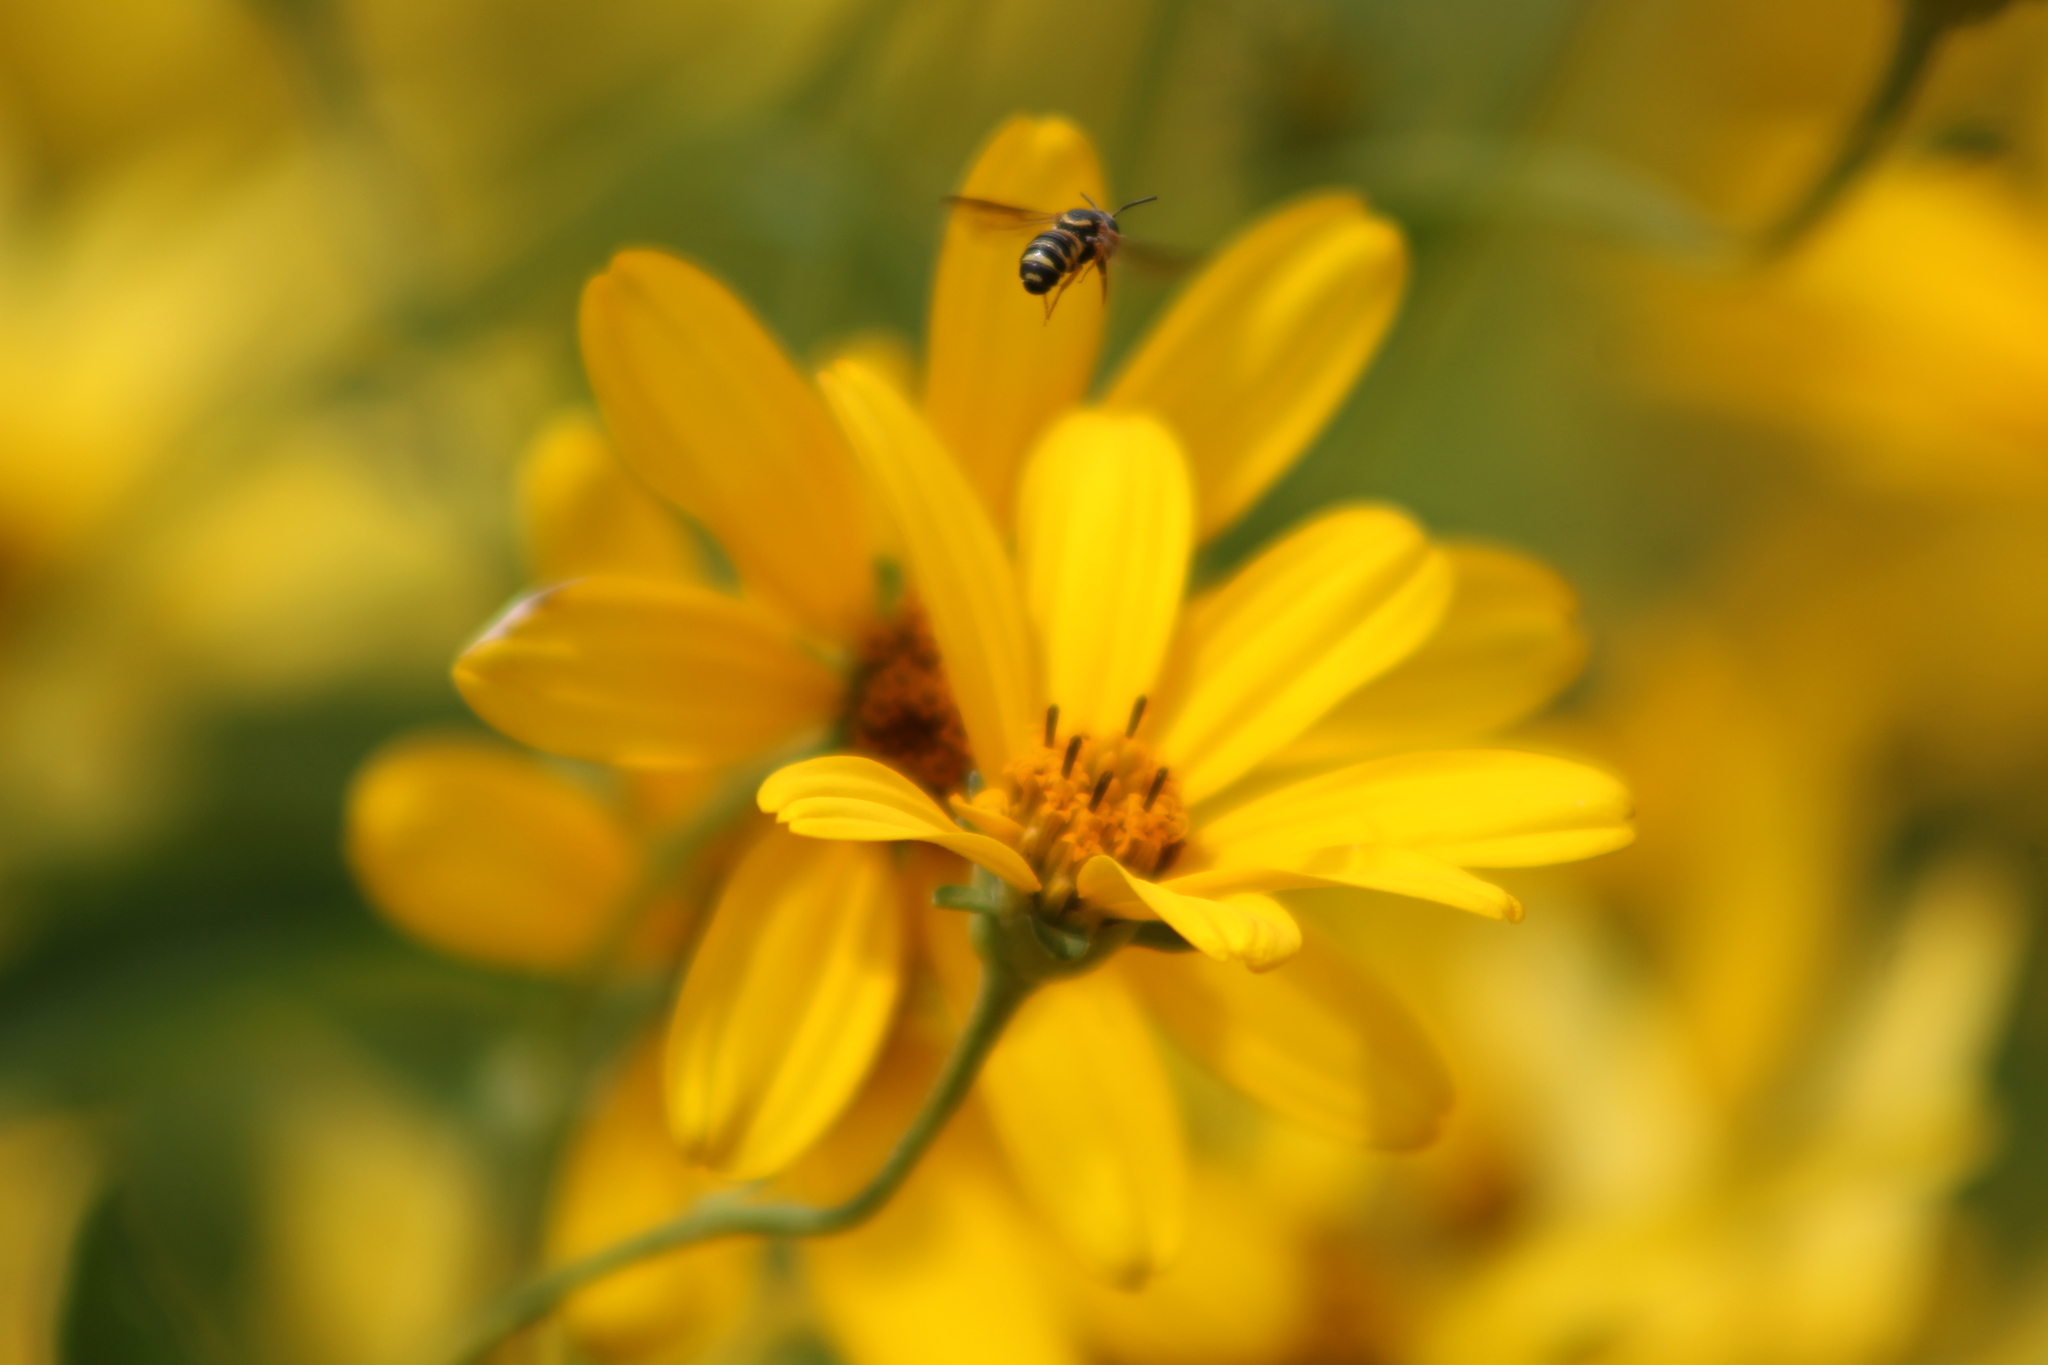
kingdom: Animalia
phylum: Arthropoda
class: Insecta
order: Hymenoptera
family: Megachilidae
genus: Stelis
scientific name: Stelis louisae
